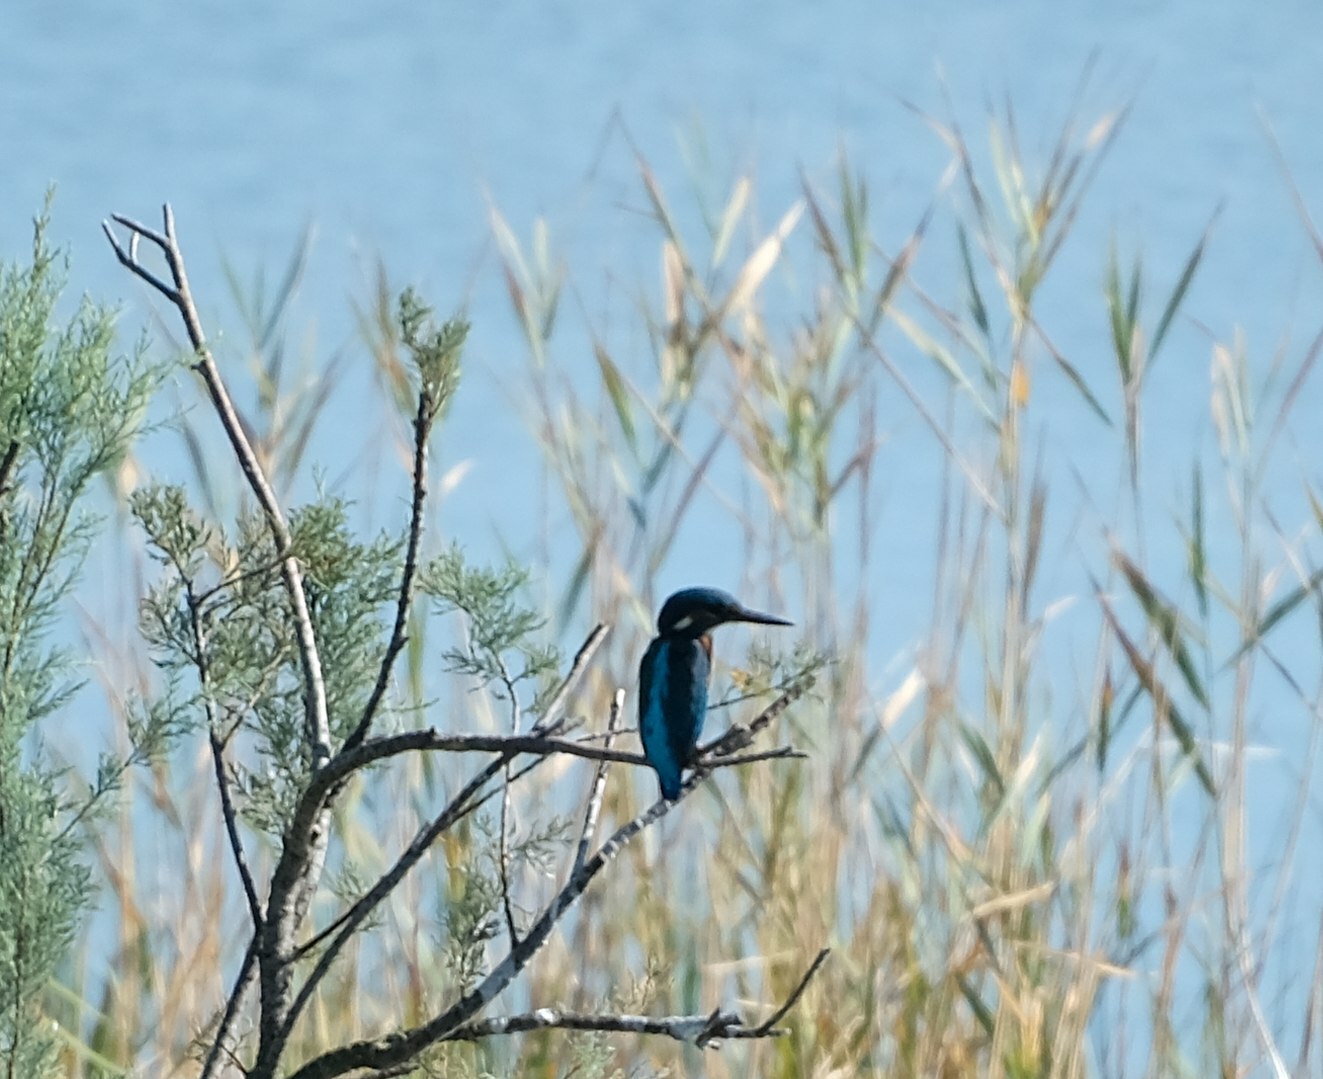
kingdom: Animalia
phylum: Chordata
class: Aves
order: Coraciiformes
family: Alcedinidae
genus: Alcedo
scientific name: Alcedo atthis
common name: Common kingfisher
